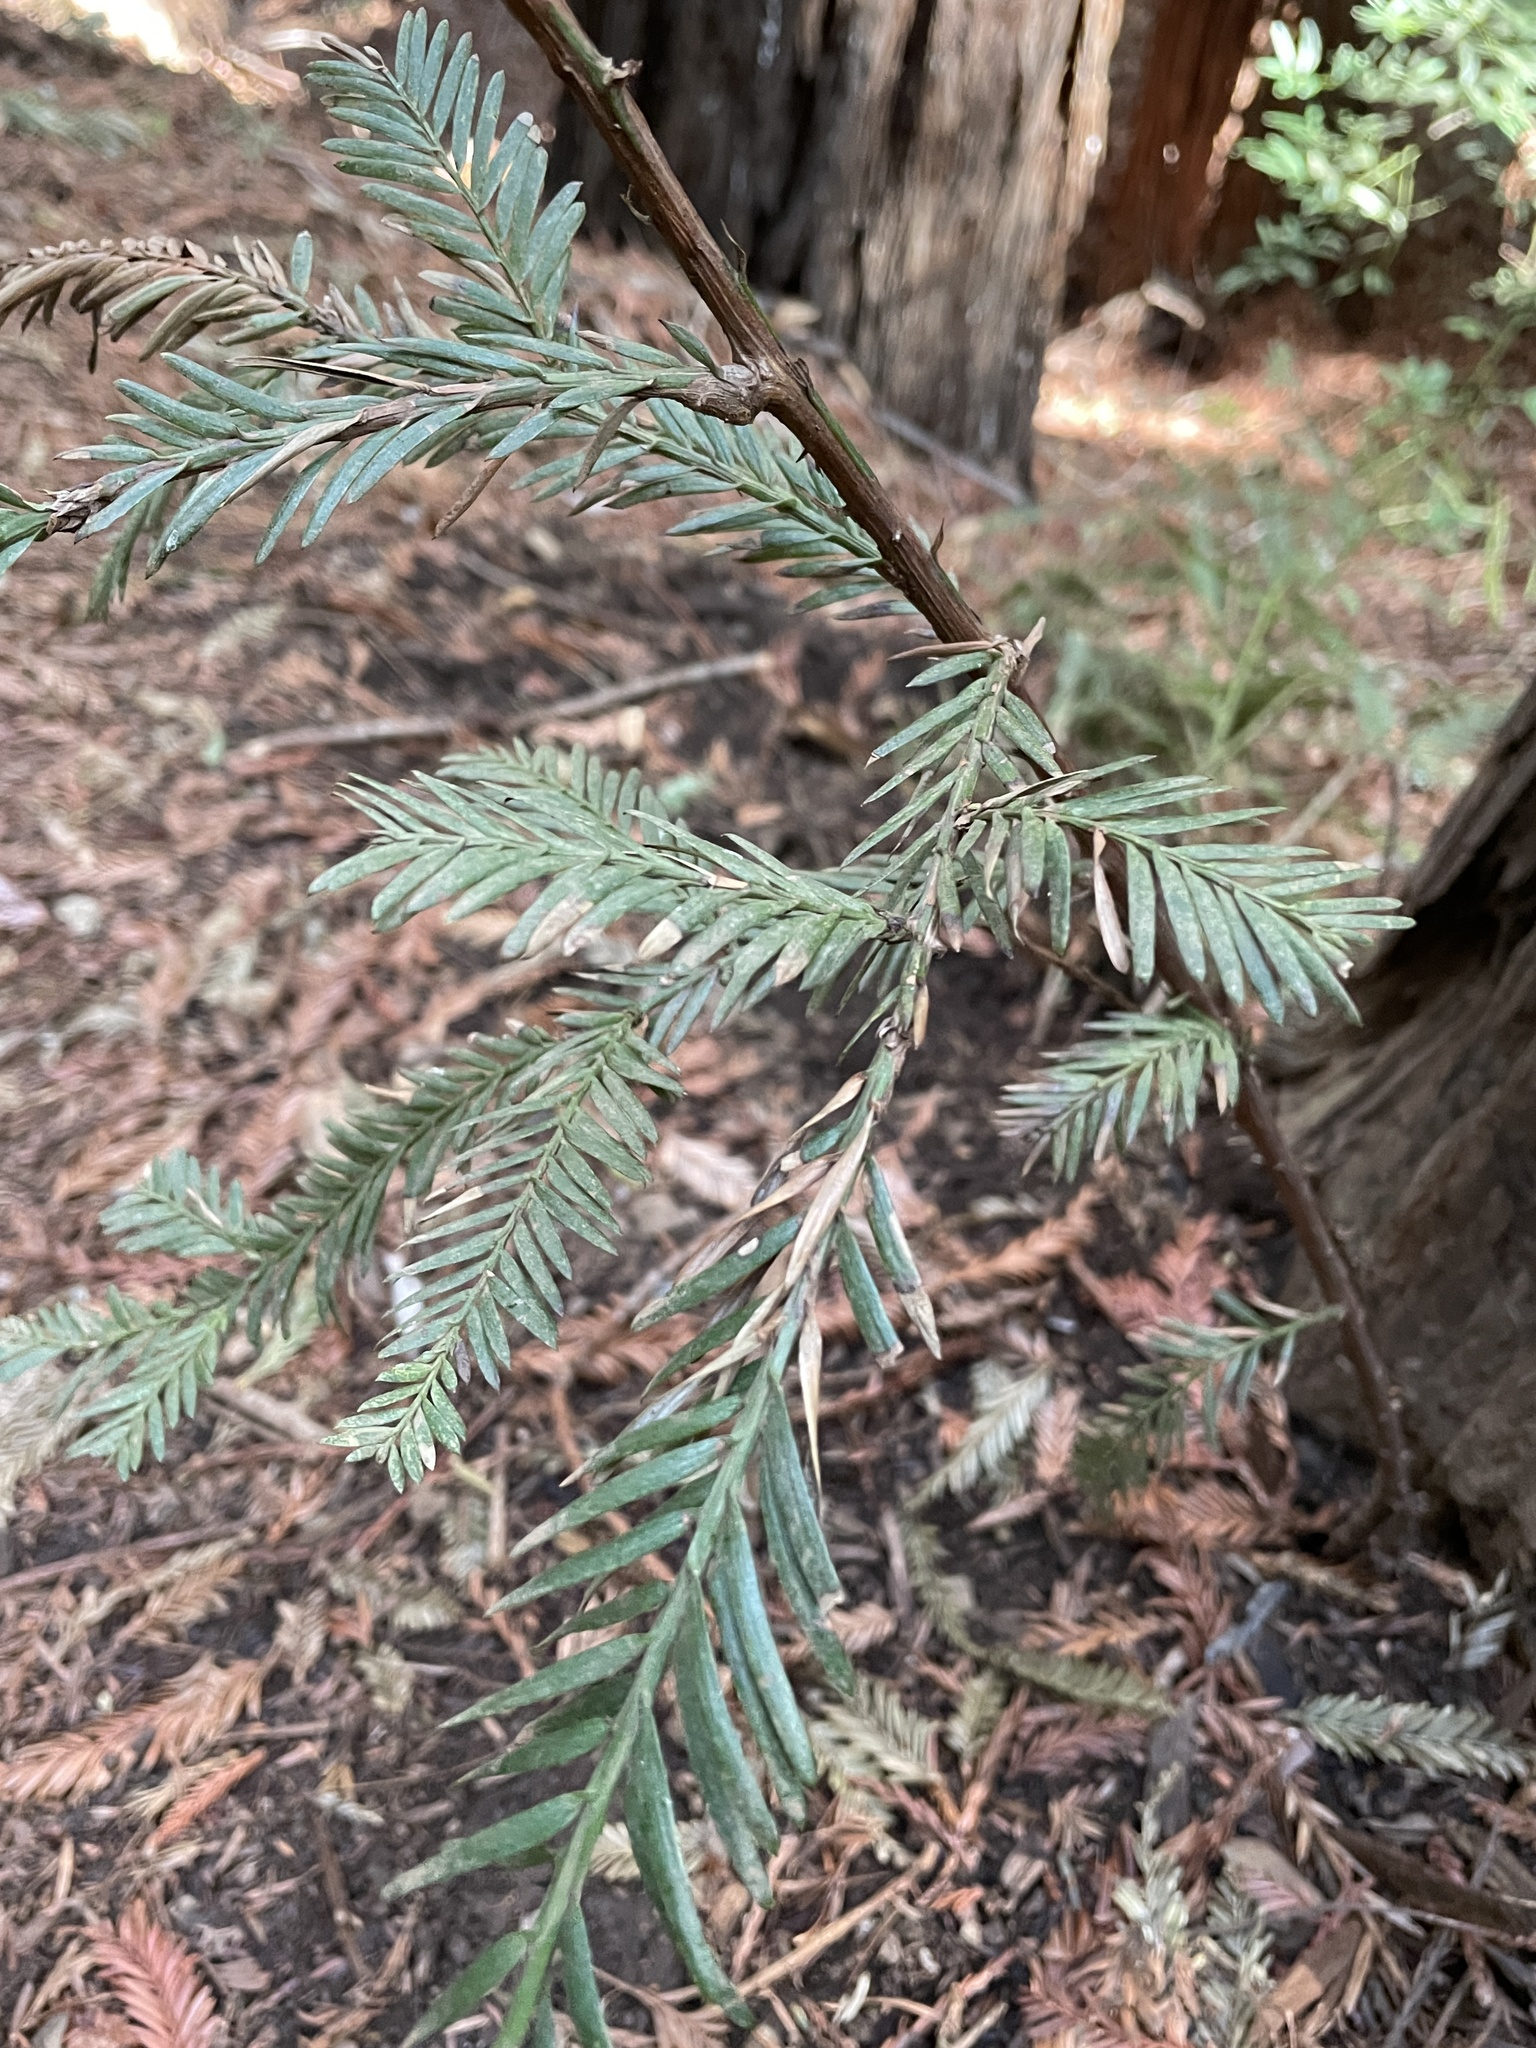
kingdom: Plantae
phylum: Tracheophyta
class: Pinopsida
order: Pinales
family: Cupressaceae
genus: Sequoia
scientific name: Sequoia sempervirens
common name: Coast redwood
